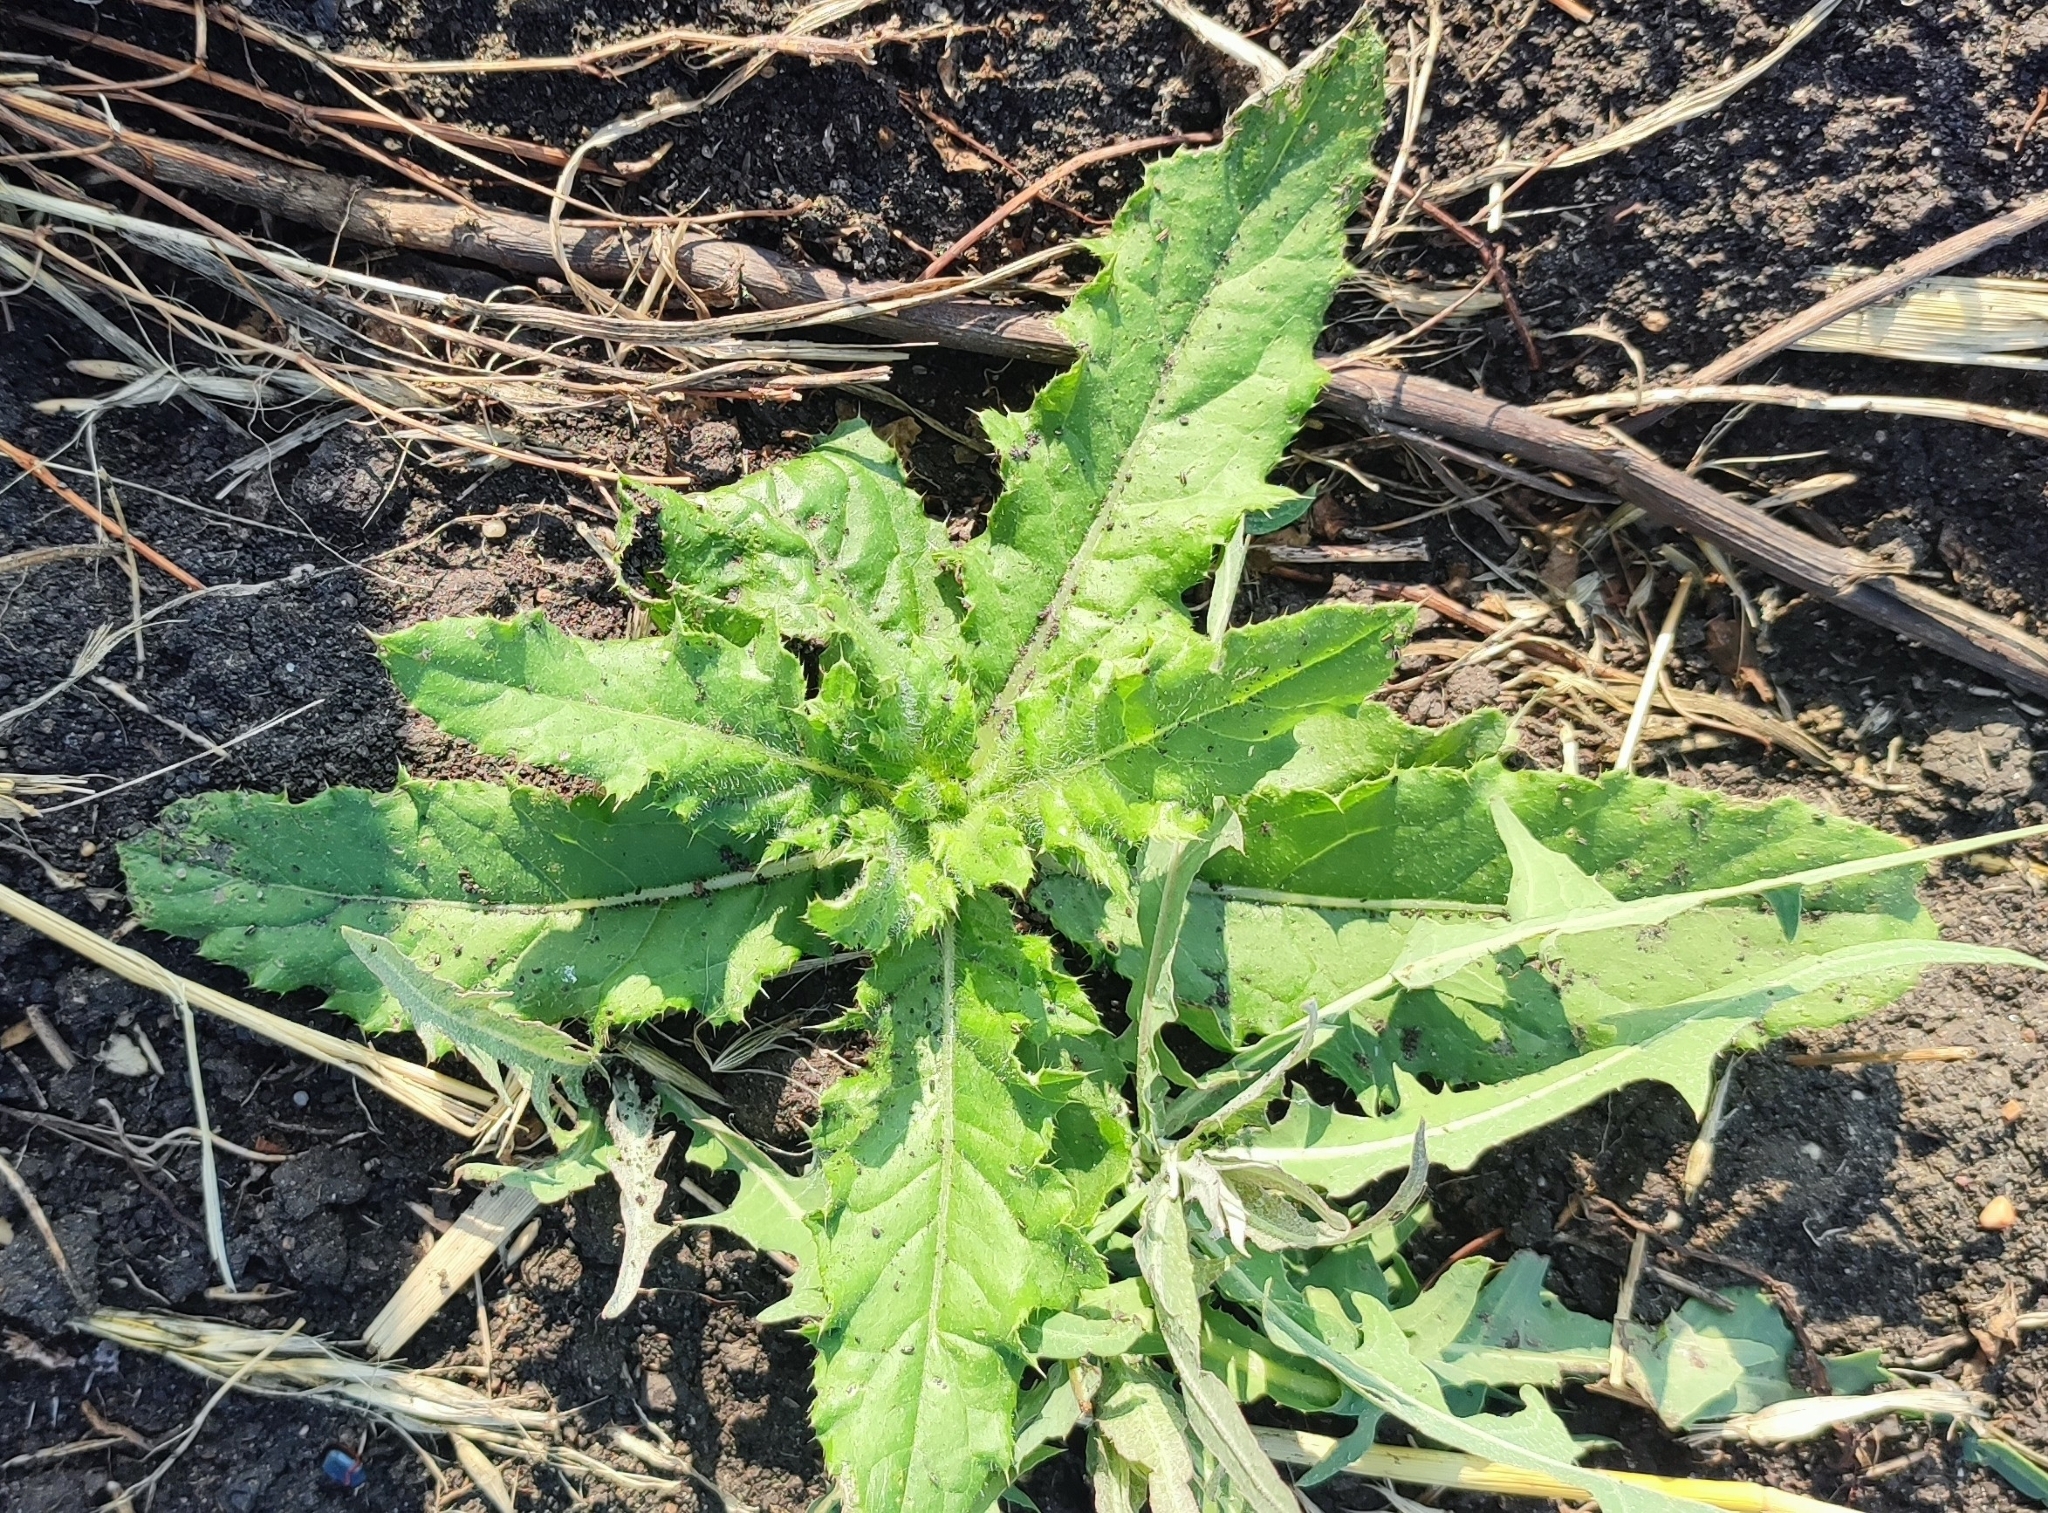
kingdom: Plantae
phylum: Tracheophyta
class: Magnoliopsida
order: Asterales
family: Asteraceae
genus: Cirsium
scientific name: Cirsium arvense
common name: Creeping thistle
